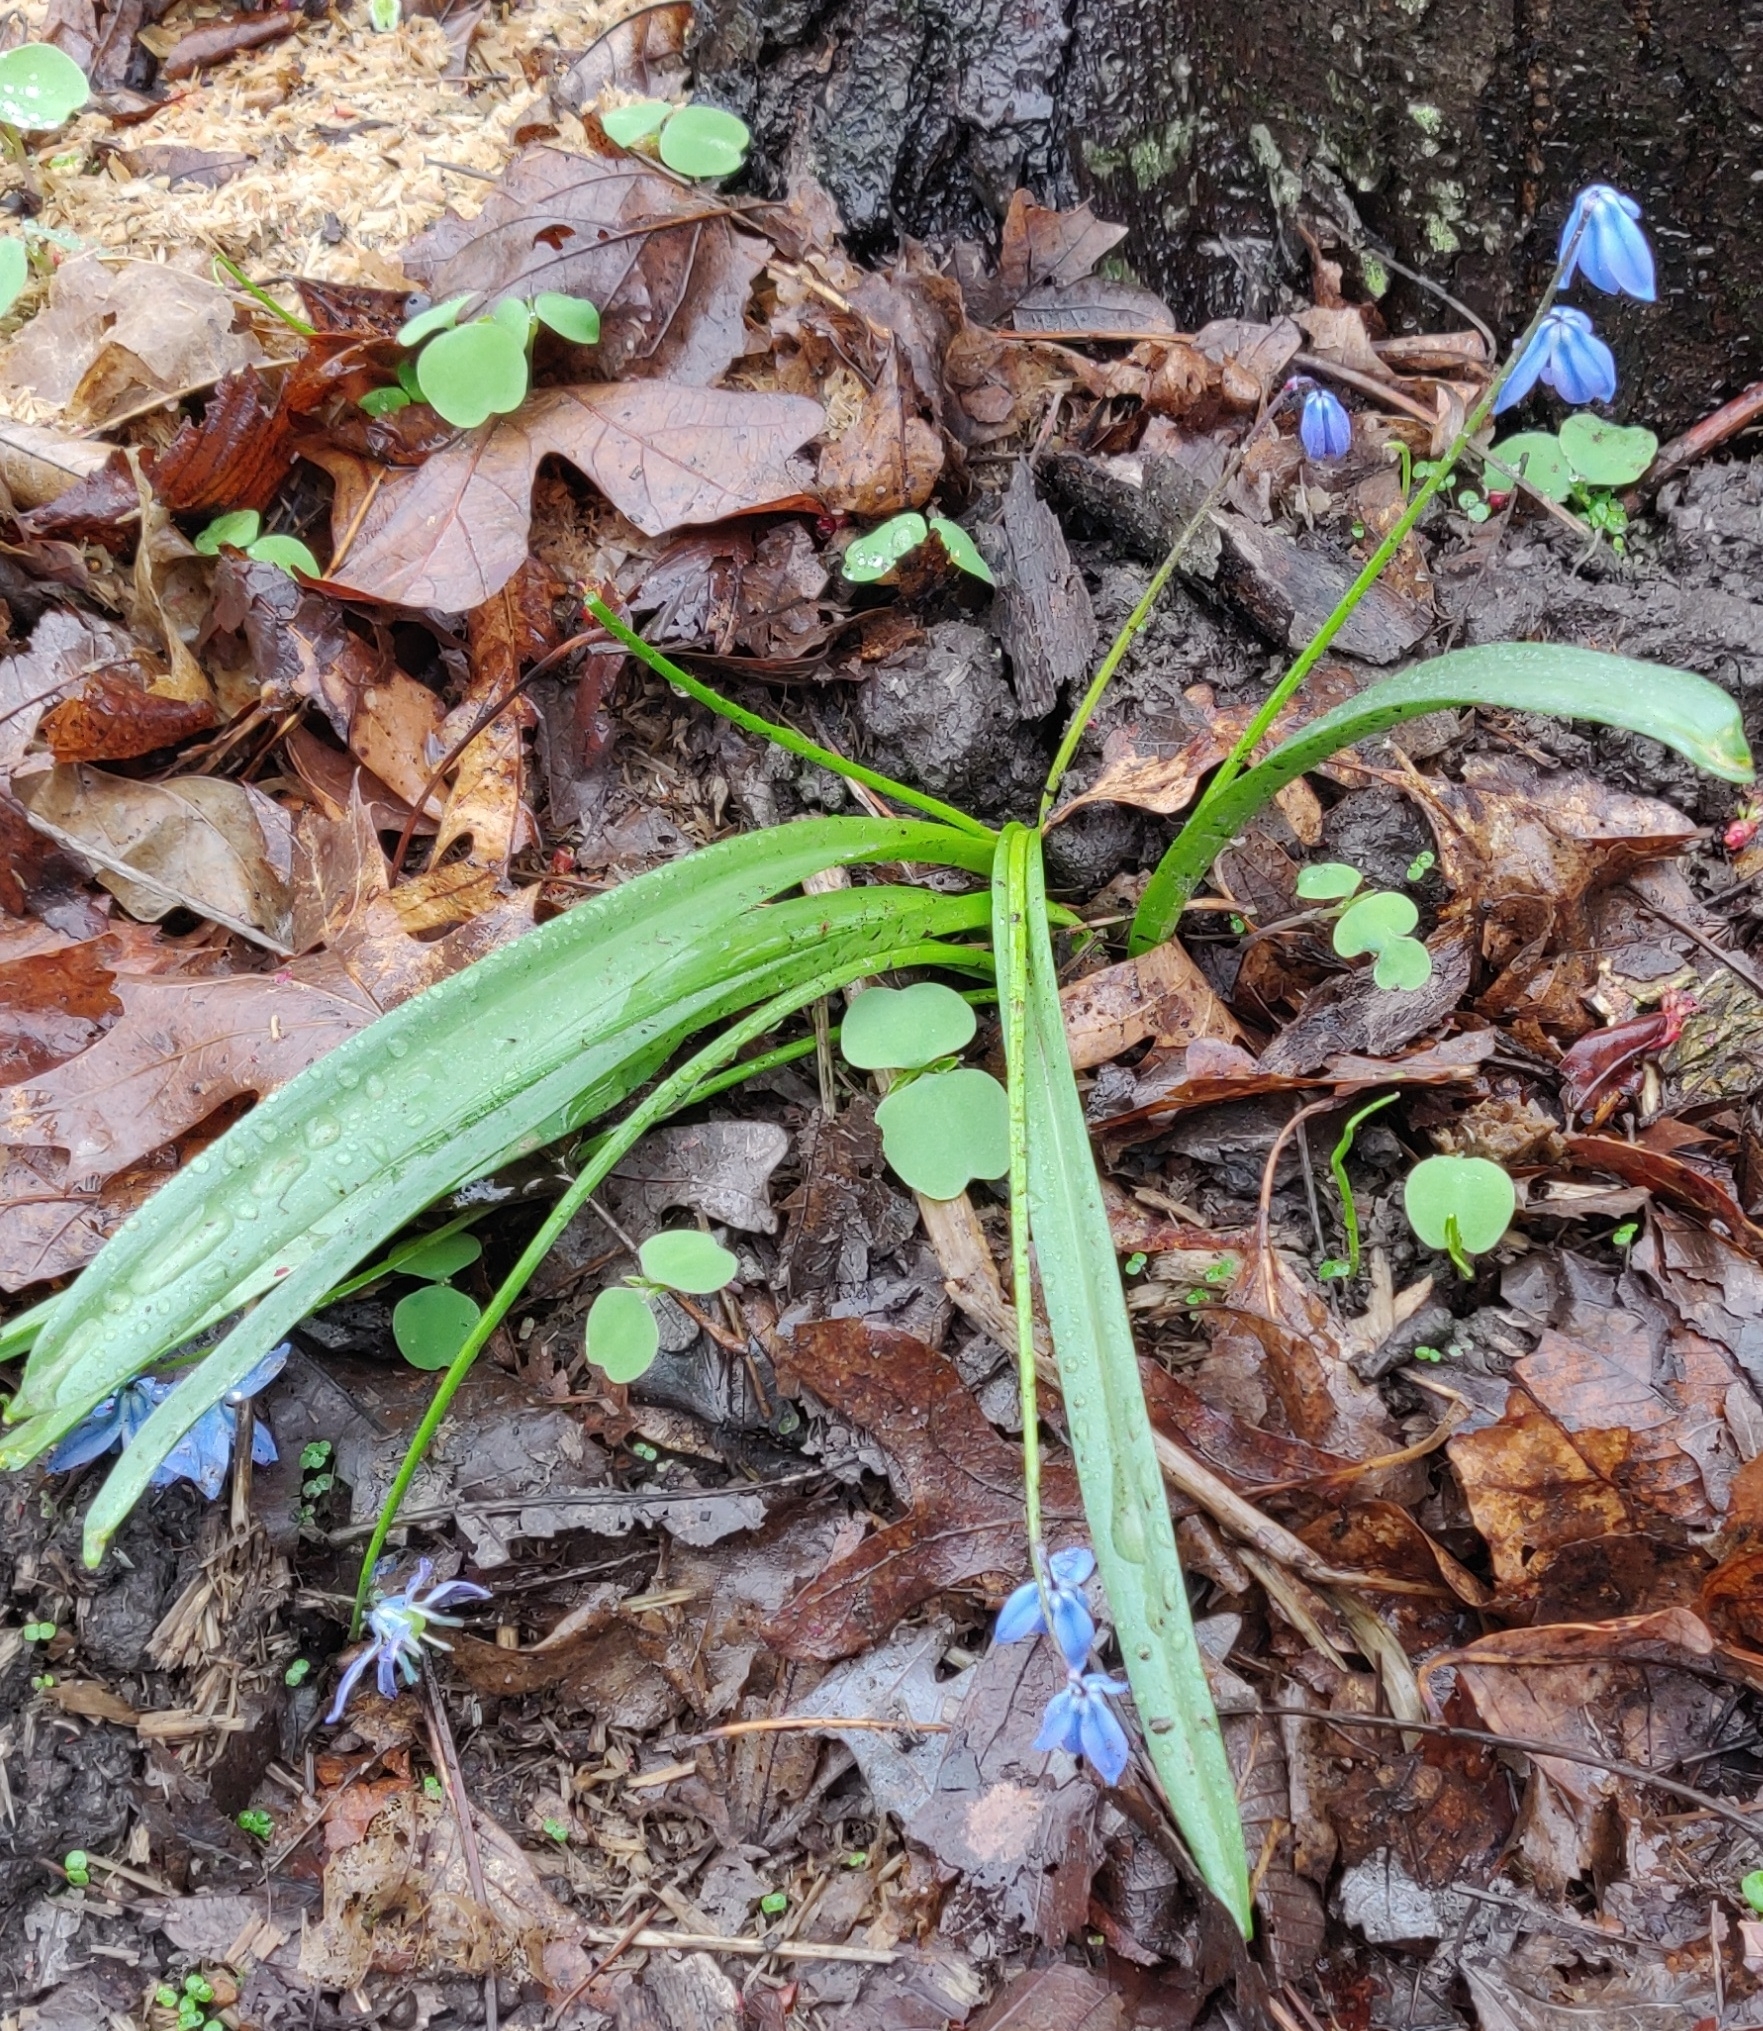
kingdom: Plantae
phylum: Tracheophyta
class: Liliopsida
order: Asparagales
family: Asparagaceae
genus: Scilla
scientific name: Scilla siberica
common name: Siberian squill
